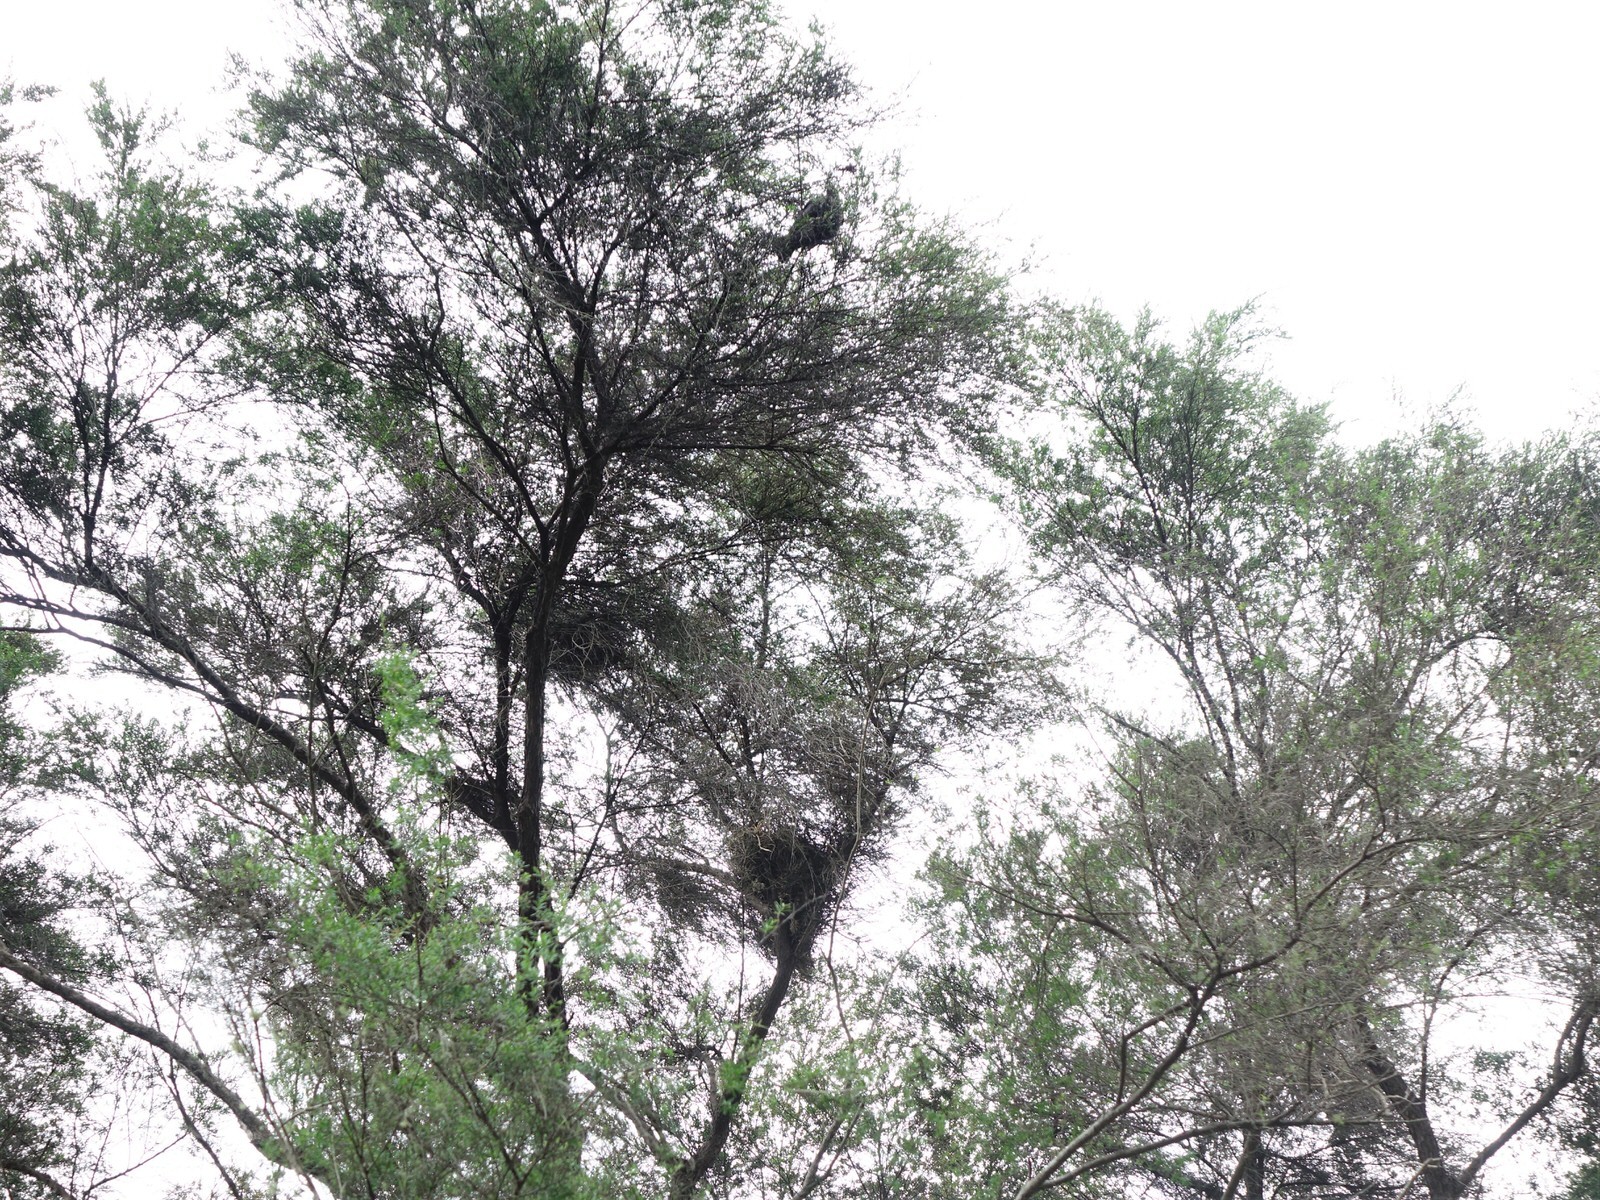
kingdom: Animalia
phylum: Chordata
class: Aves
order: Passeriformes
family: Meliphagidae
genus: Prosthemadera
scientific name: Prosthemadera novaeseelandiae
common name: Tui
